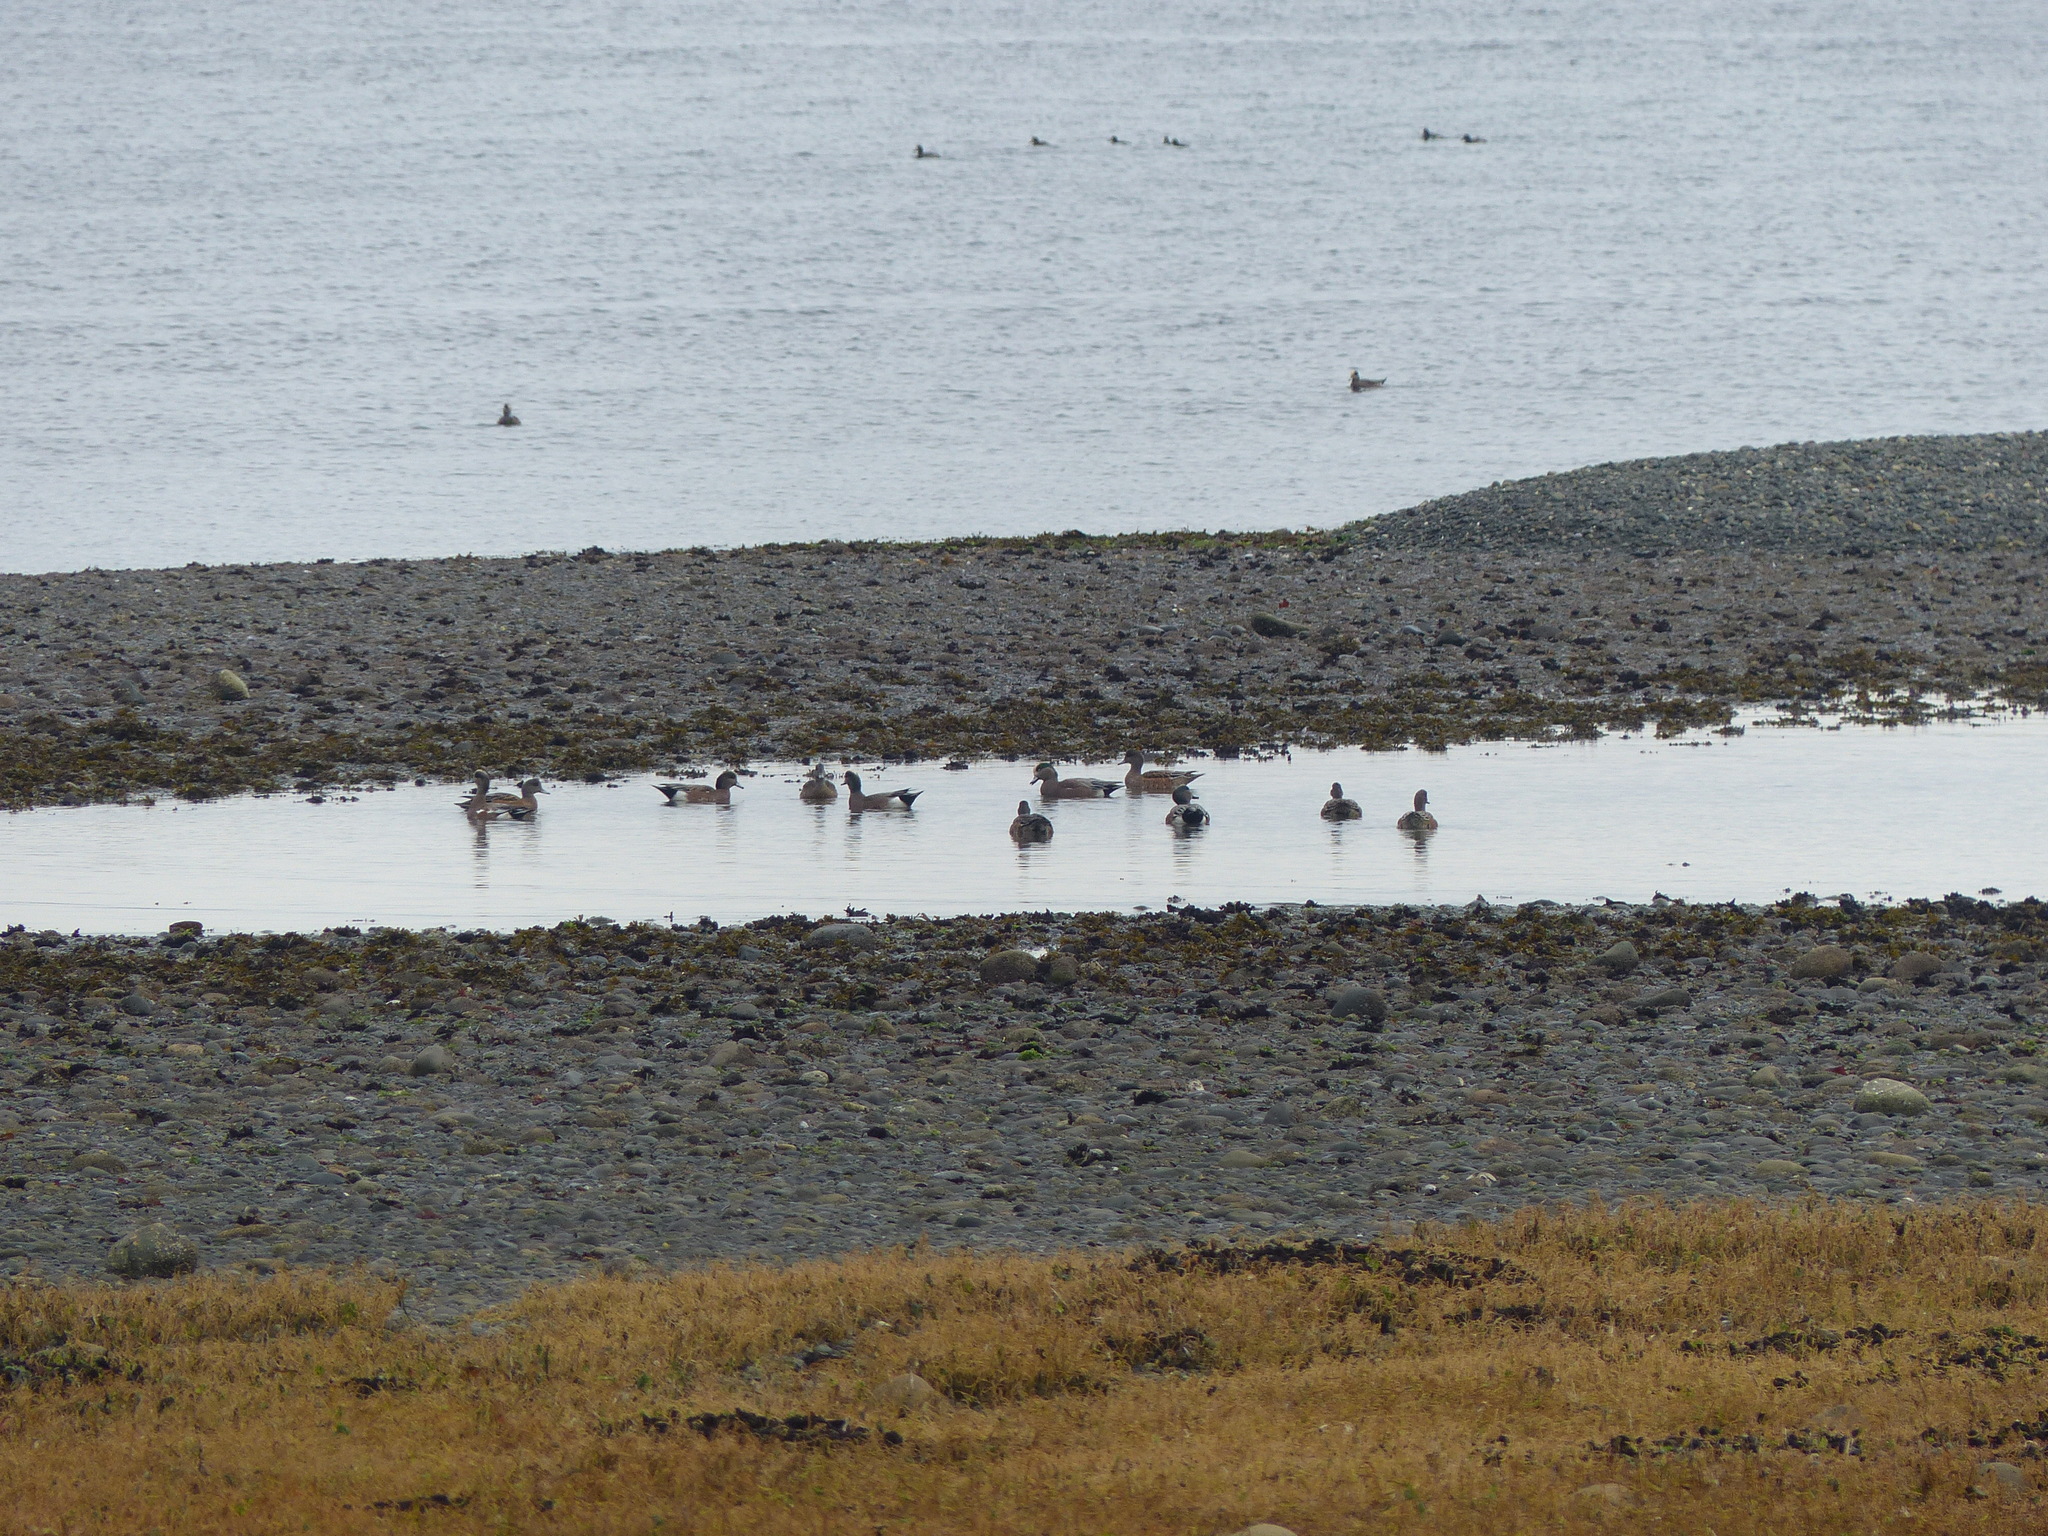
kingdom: Animalia
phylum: Chordata
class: Aves
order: Anseriformes
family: Anatidae
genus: Mareca
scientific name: Mareca americana
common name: American wigeon
